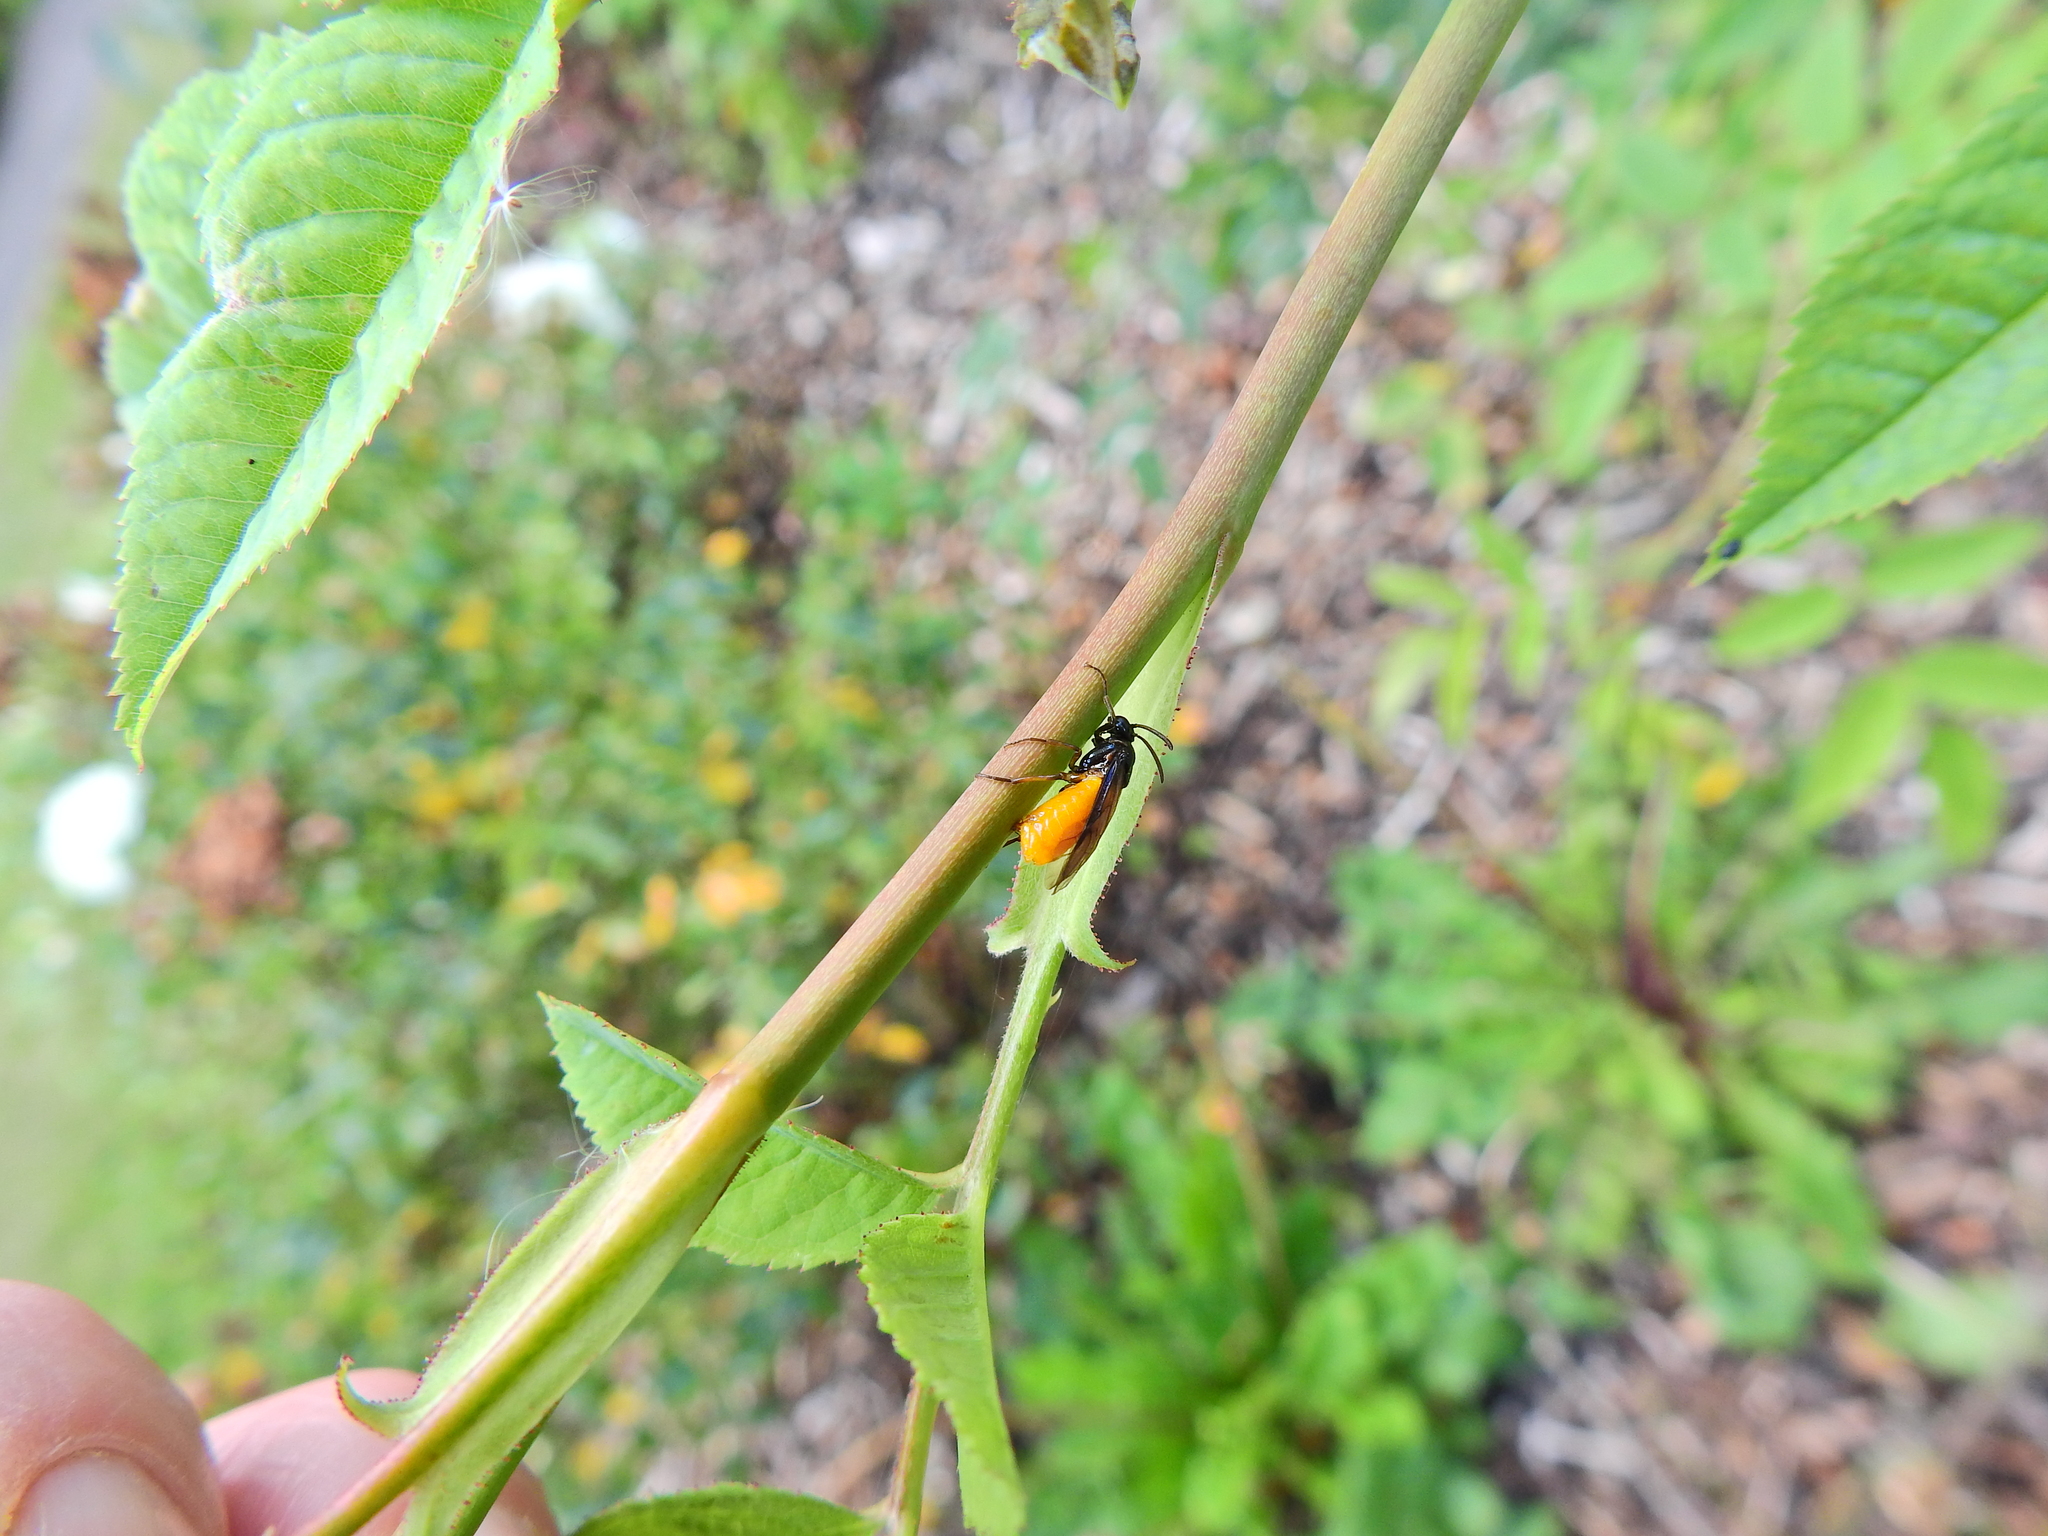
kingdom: Animalia
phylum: Arthropoda
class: Insecta
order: Hymenoptera
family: Argidae
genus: Arge
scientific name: Arge pagana
